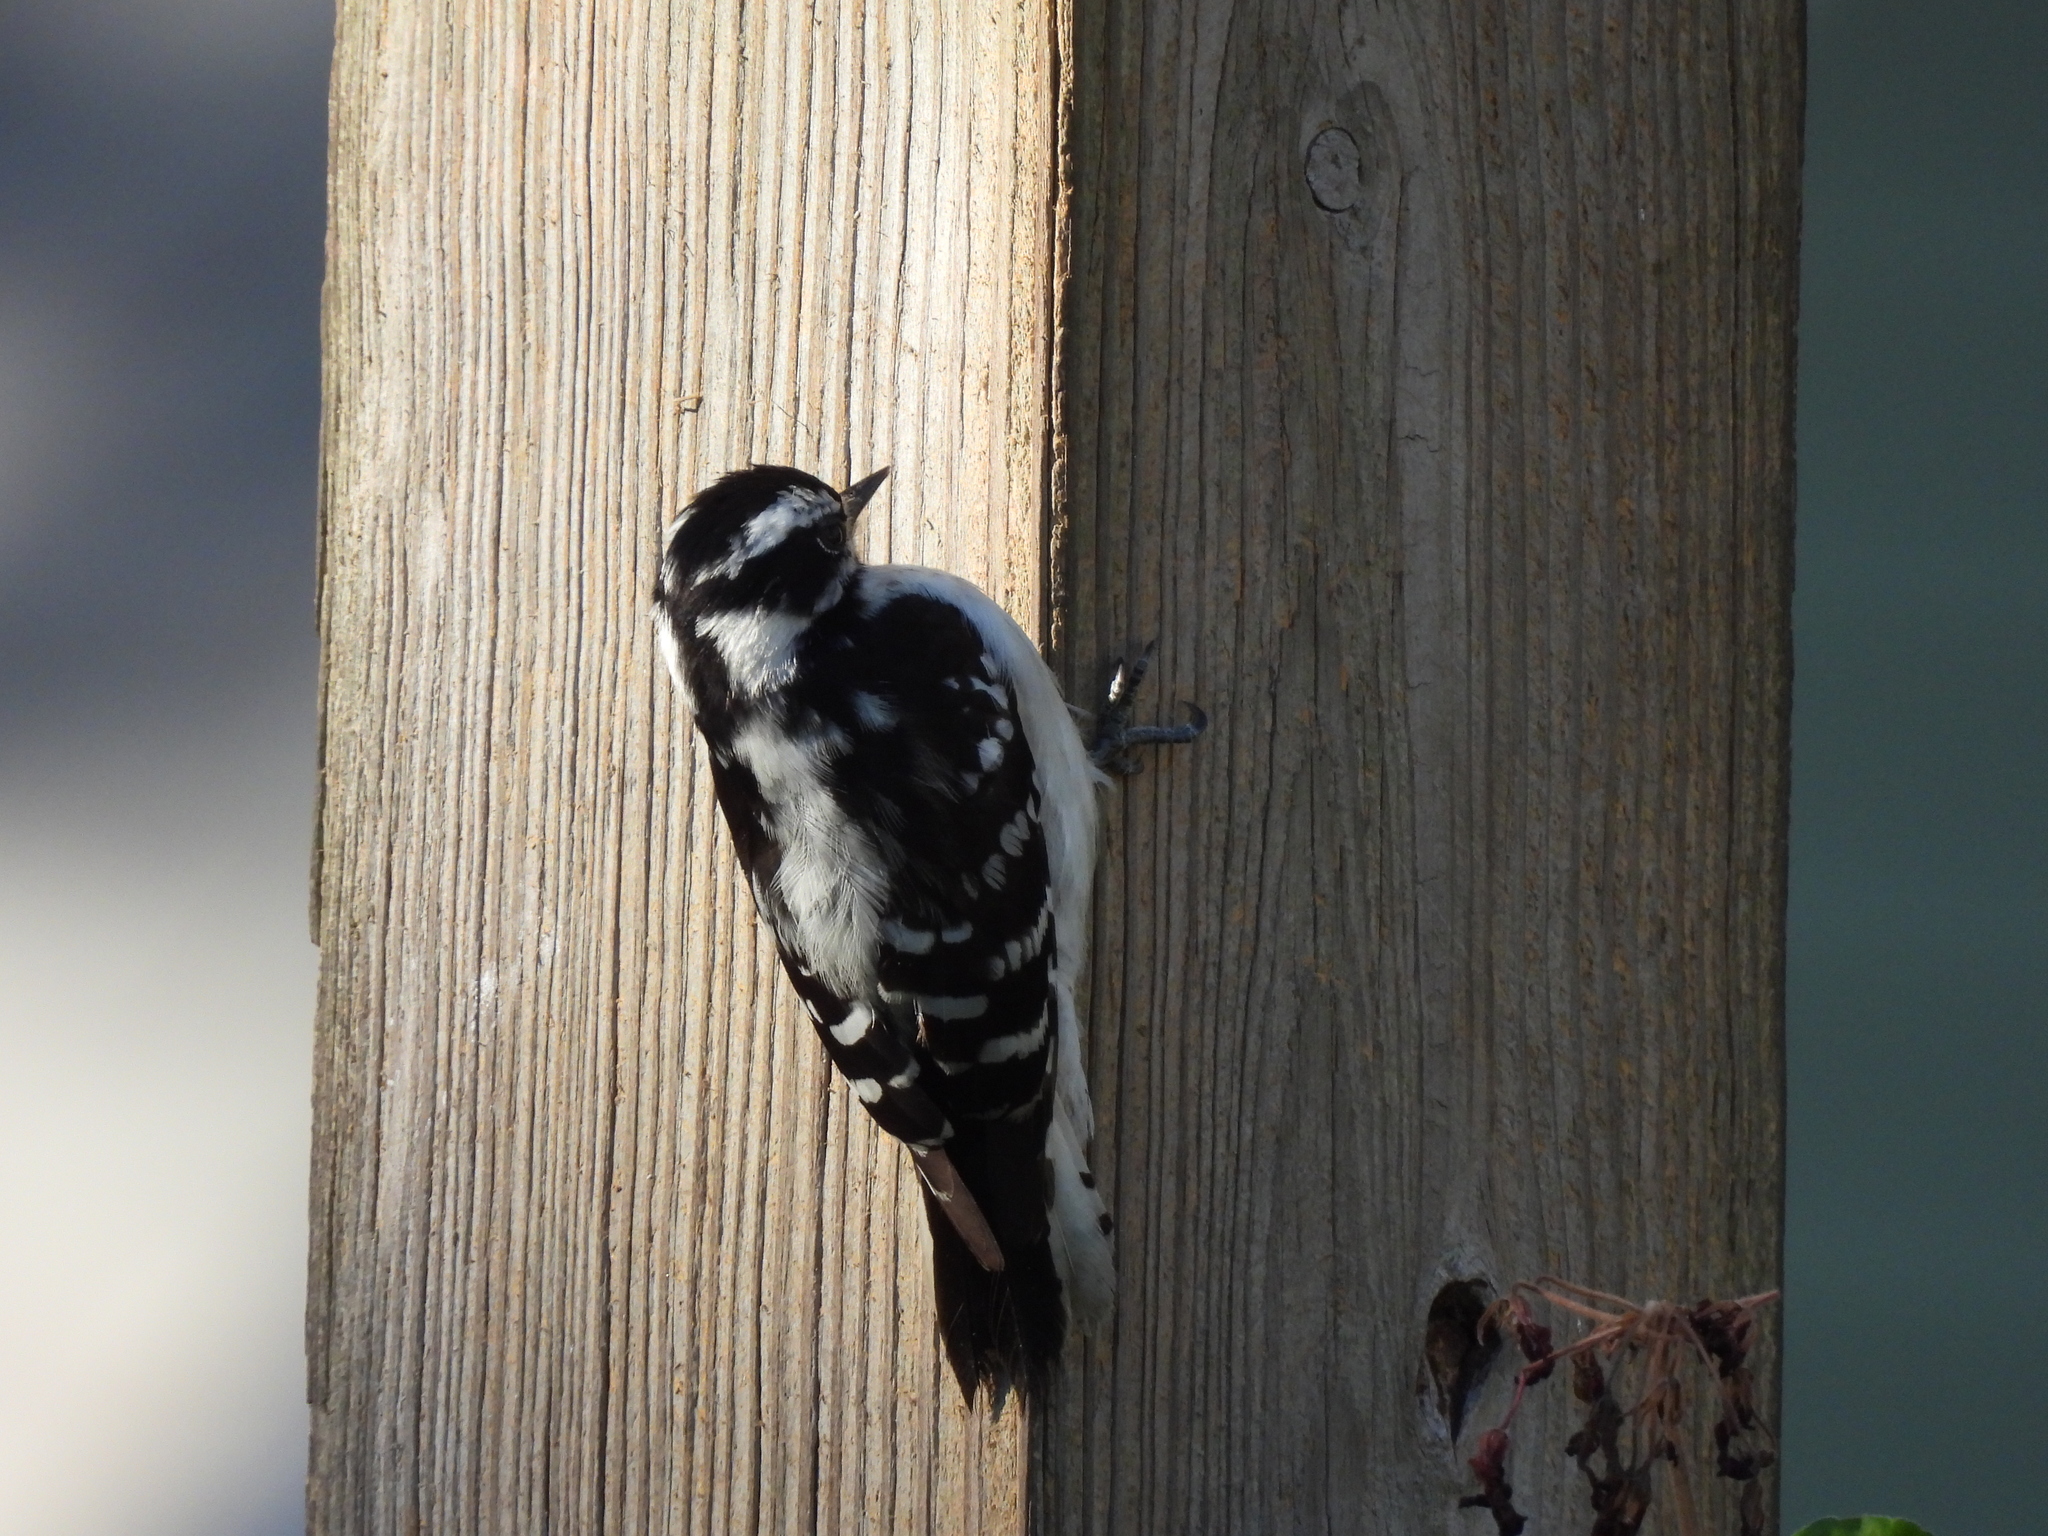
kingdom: Animalia
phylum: Chordata
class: Aves
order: Piciformes
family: Picidae
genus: Dryobates
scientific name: Dryobates pubescens
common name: Downy woodpecker
